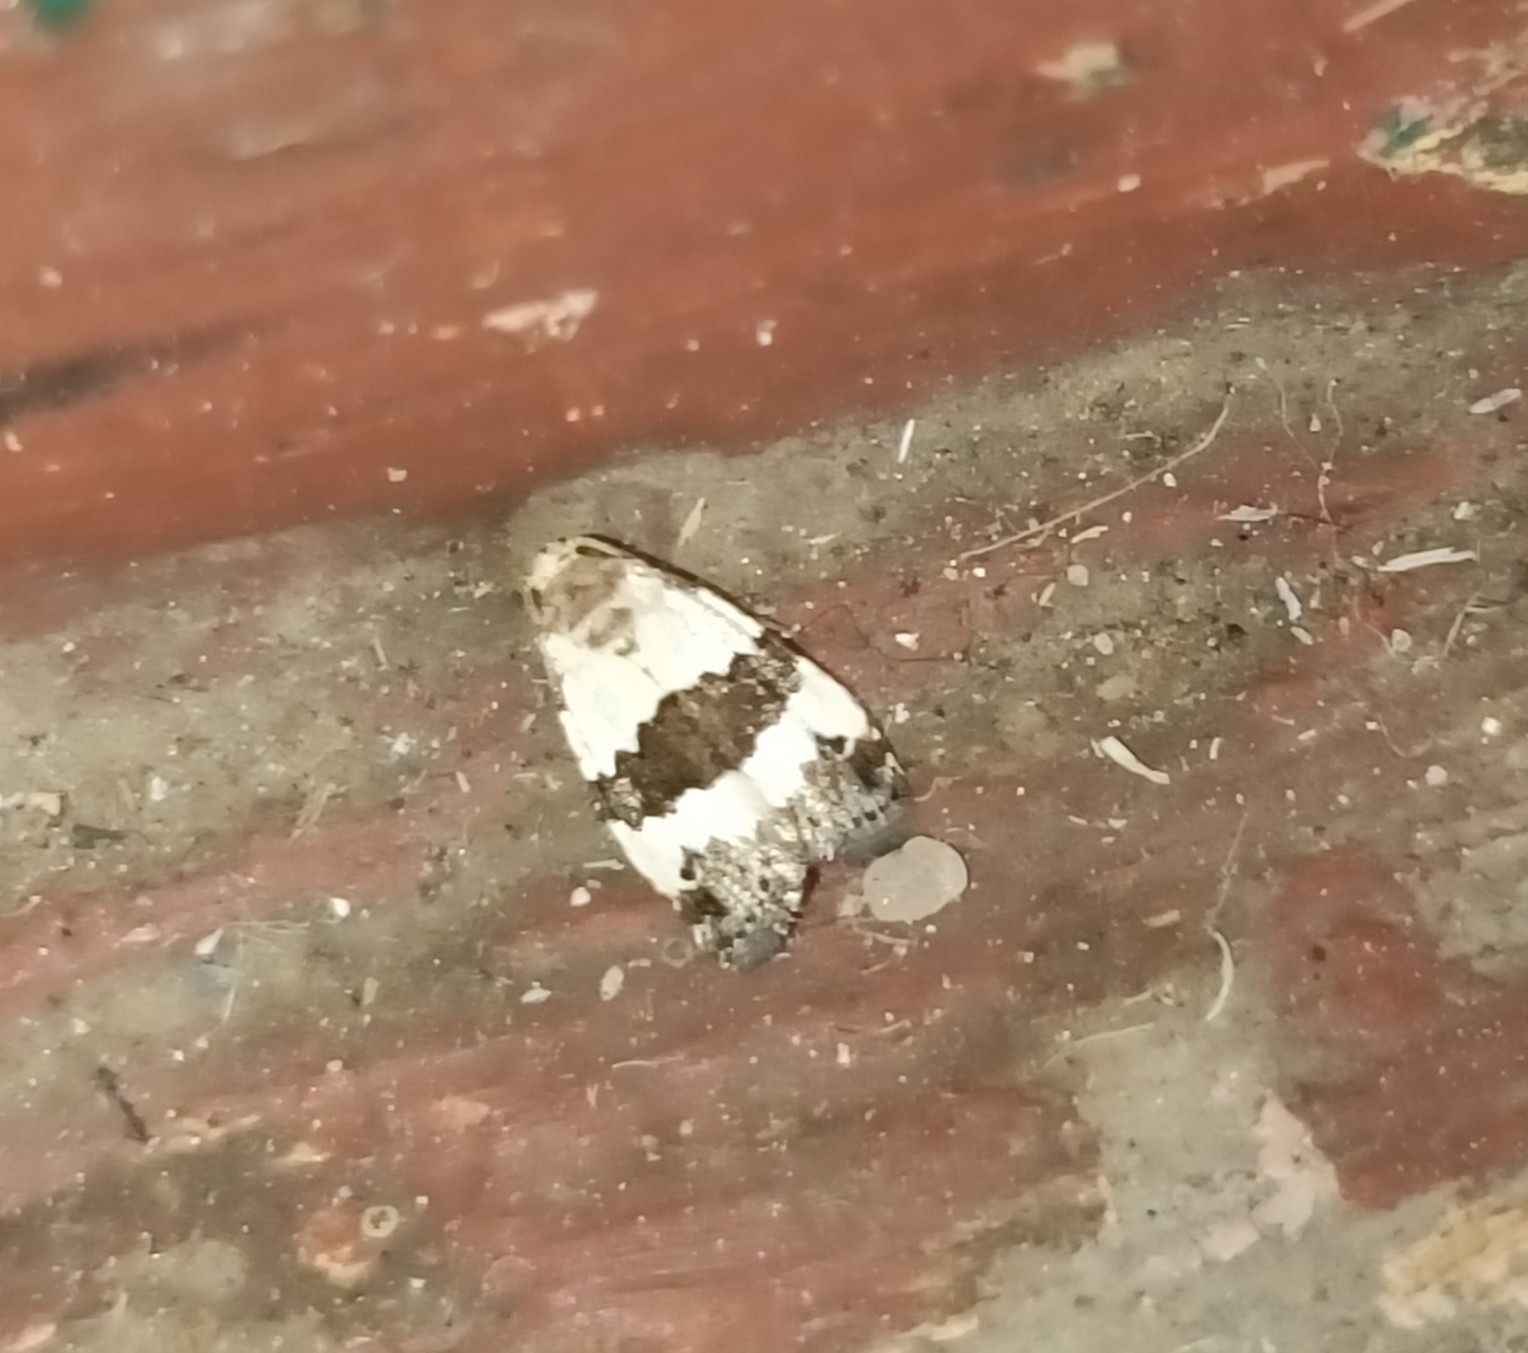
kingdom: Animalia
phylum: Arthropoda
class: Insecta
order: Lepidoptera
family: Noctuidae
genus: Maliattha
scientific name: Maliattha quadripartita
